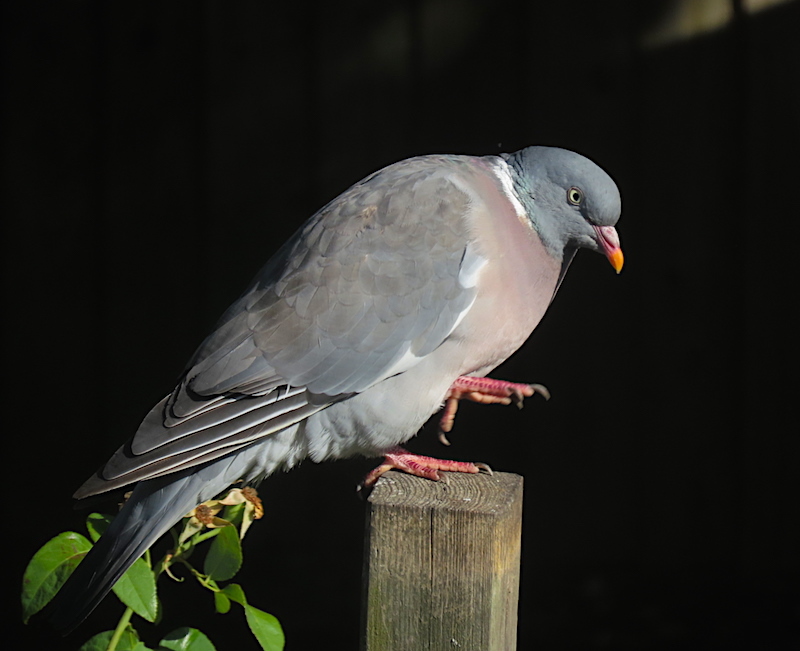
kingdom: Animalia
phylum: Chordata
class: Aves
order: Columbiformes
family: Columbidae
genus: Columba
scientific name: Columba palumbus
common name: Common wood pigeon
